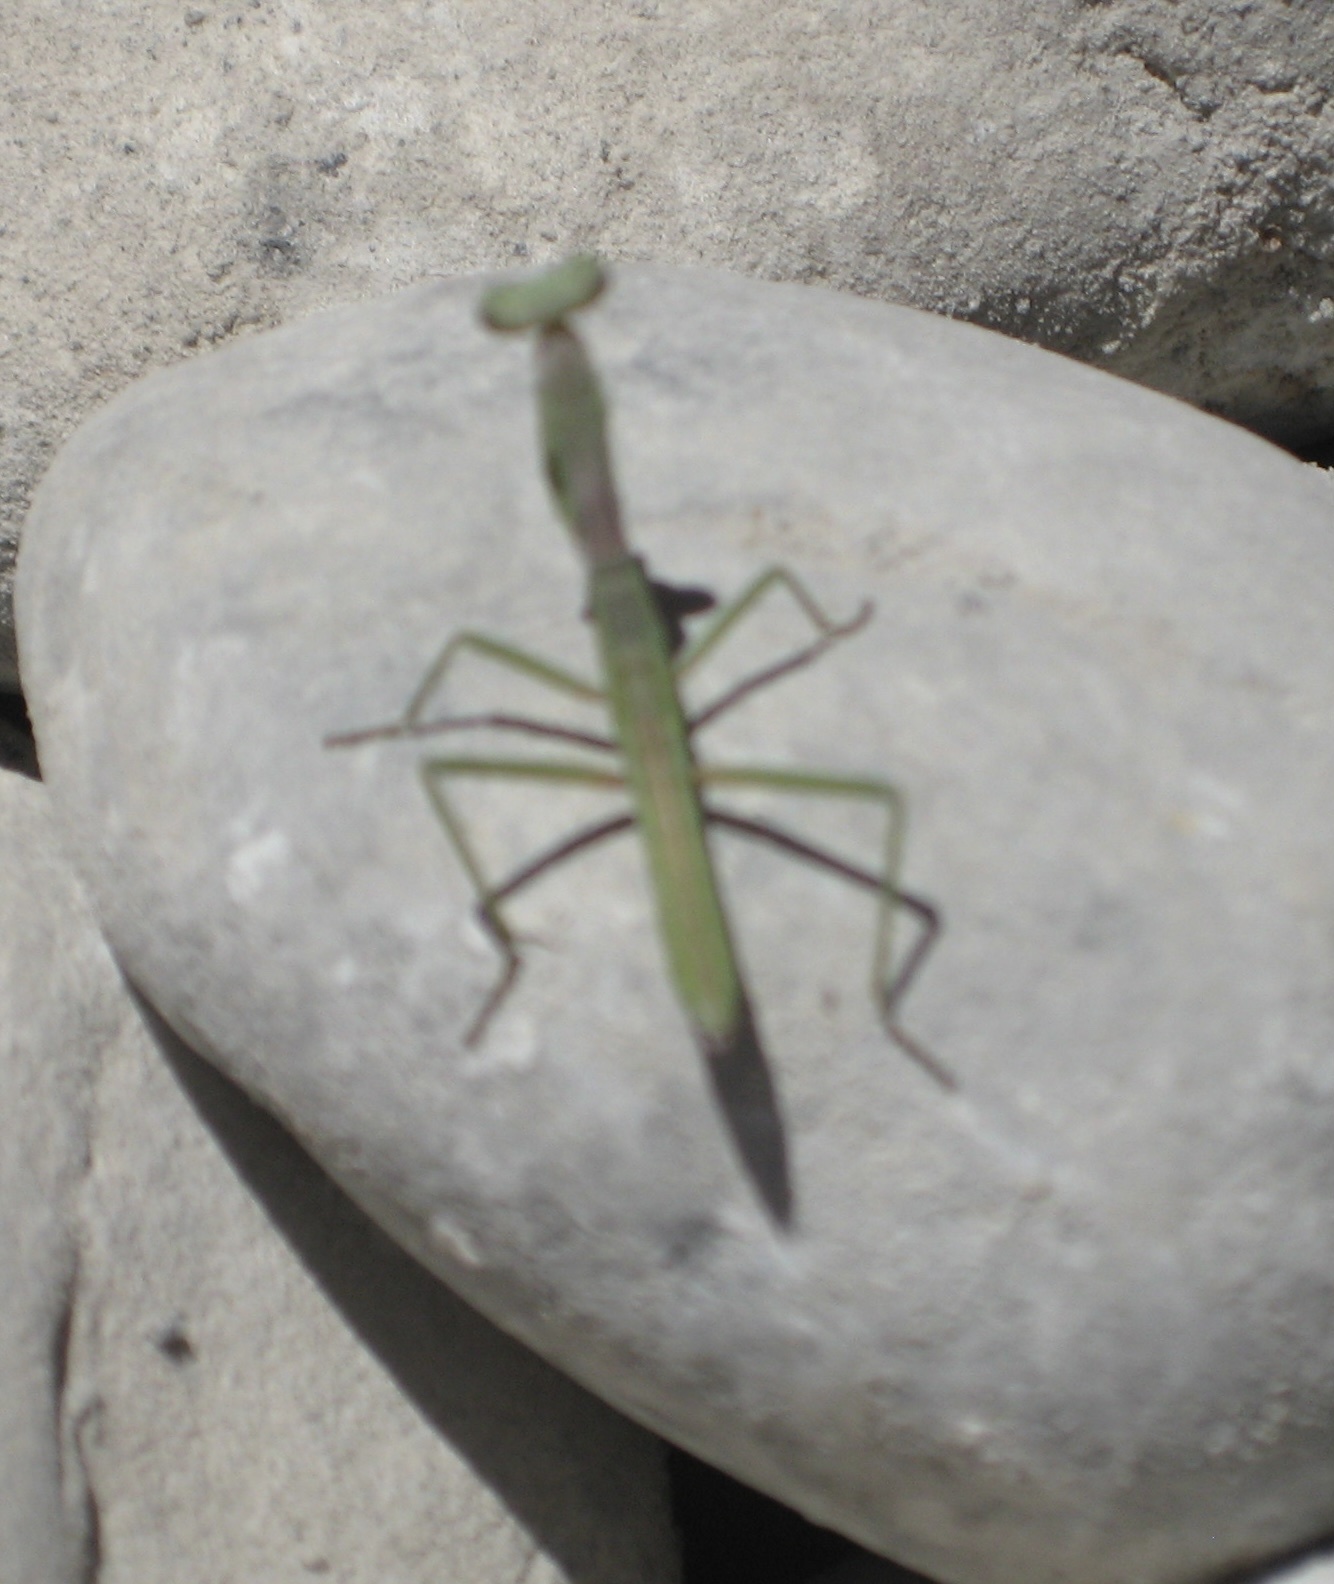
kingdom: Animalia
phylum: Arthropoda
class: Insecta
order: Mantodea
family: Mantidae
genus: Mantis
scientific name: Mantis religiosa
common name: Praying mantis
